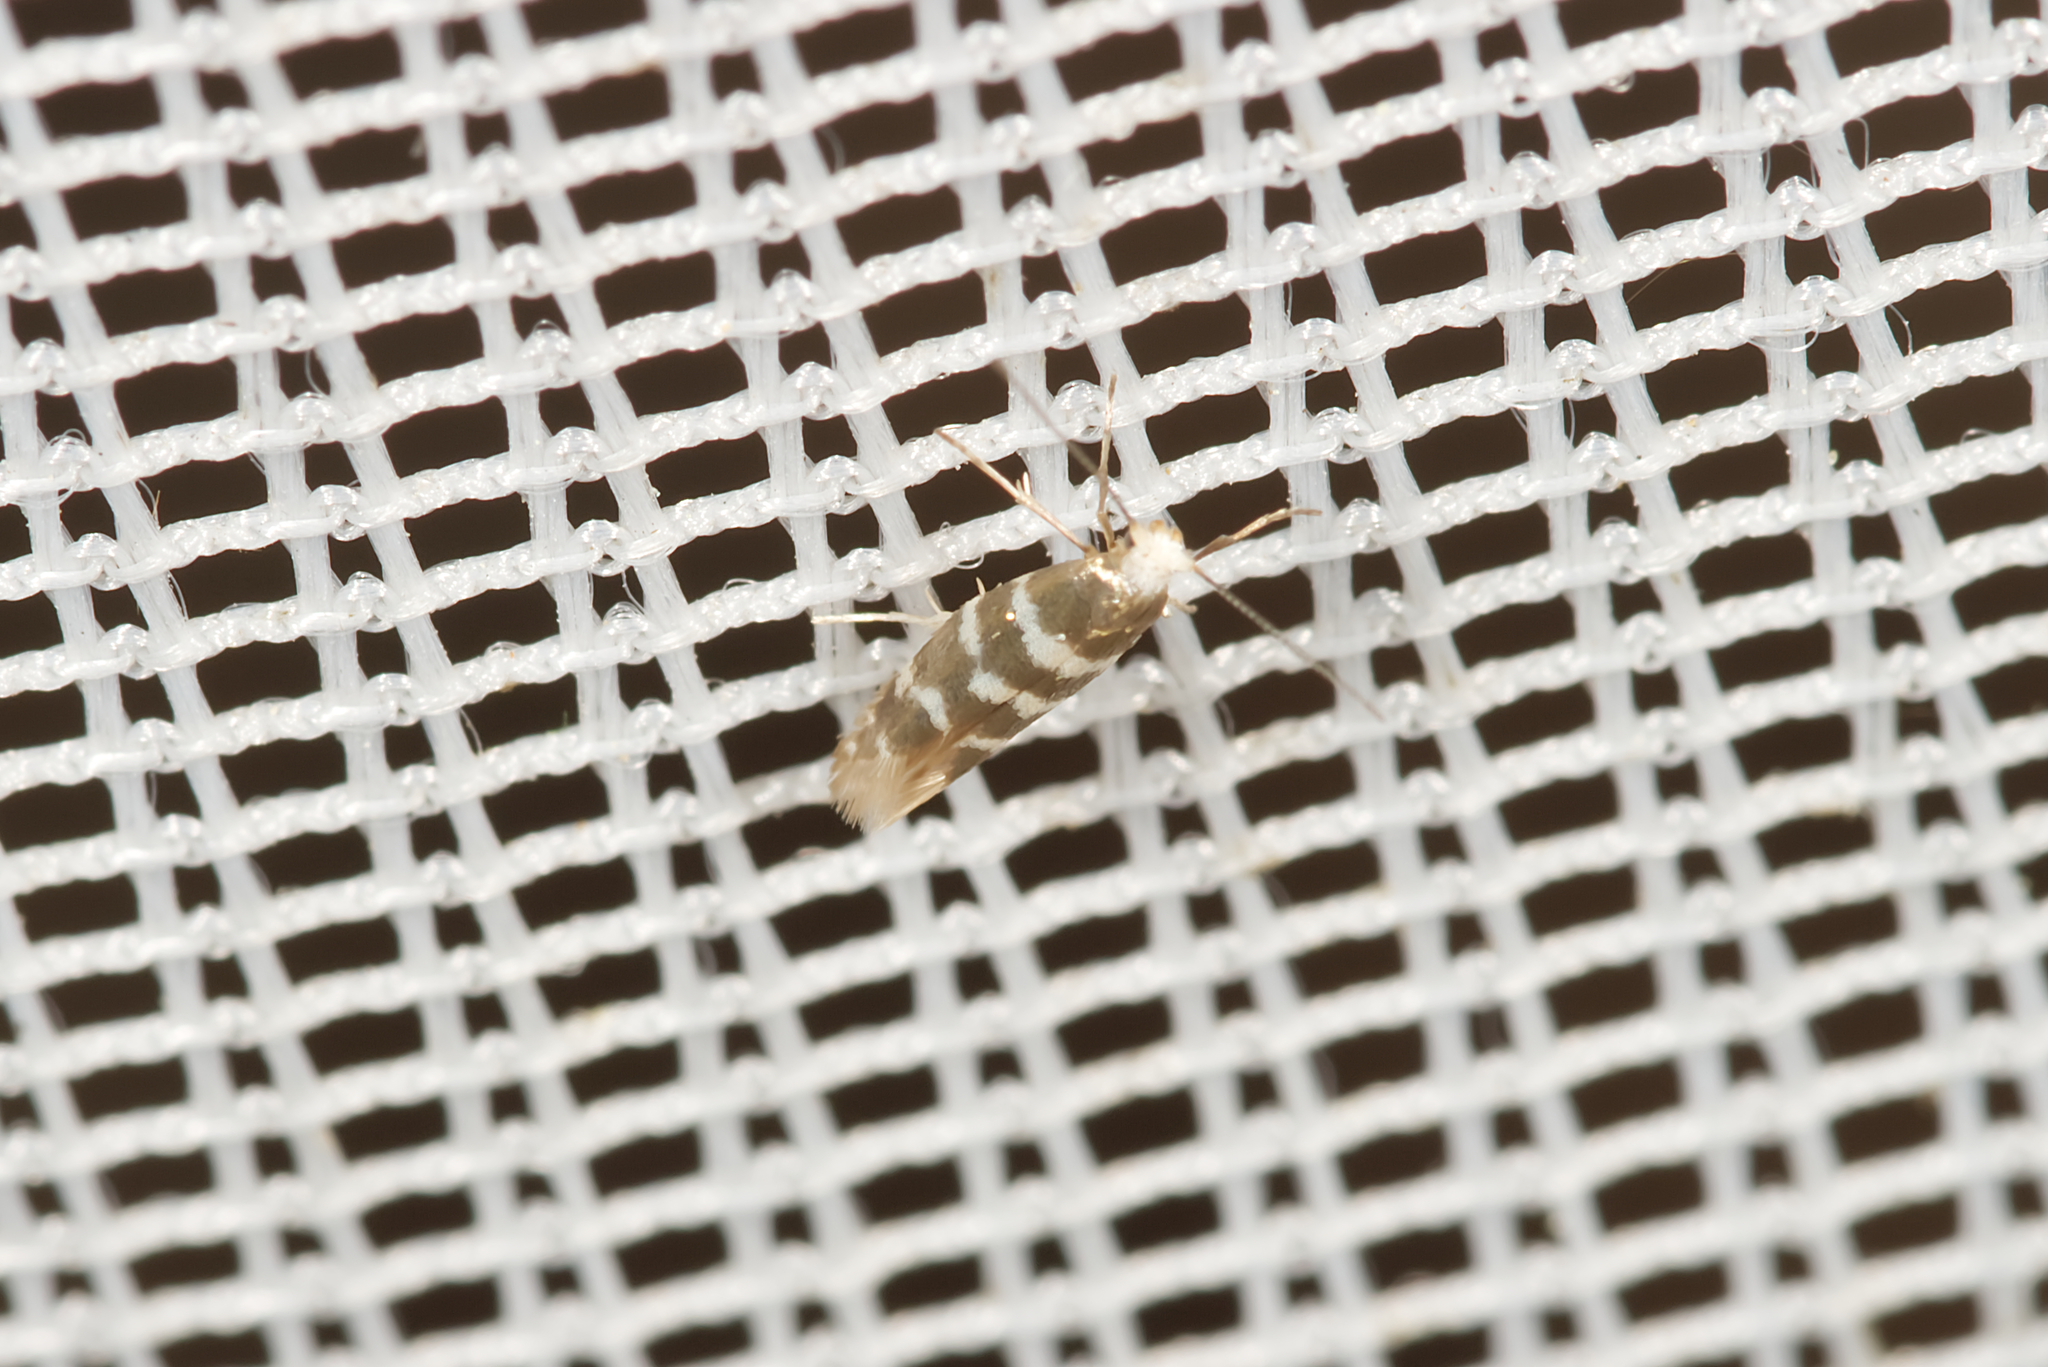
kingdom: Animalia
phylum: Arthropoda
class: Insecta
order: Lepidoptera
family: Argyresthiidae
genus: Argyresthia
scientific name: Argyresthia trifasciata
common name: Triple-barred argent
